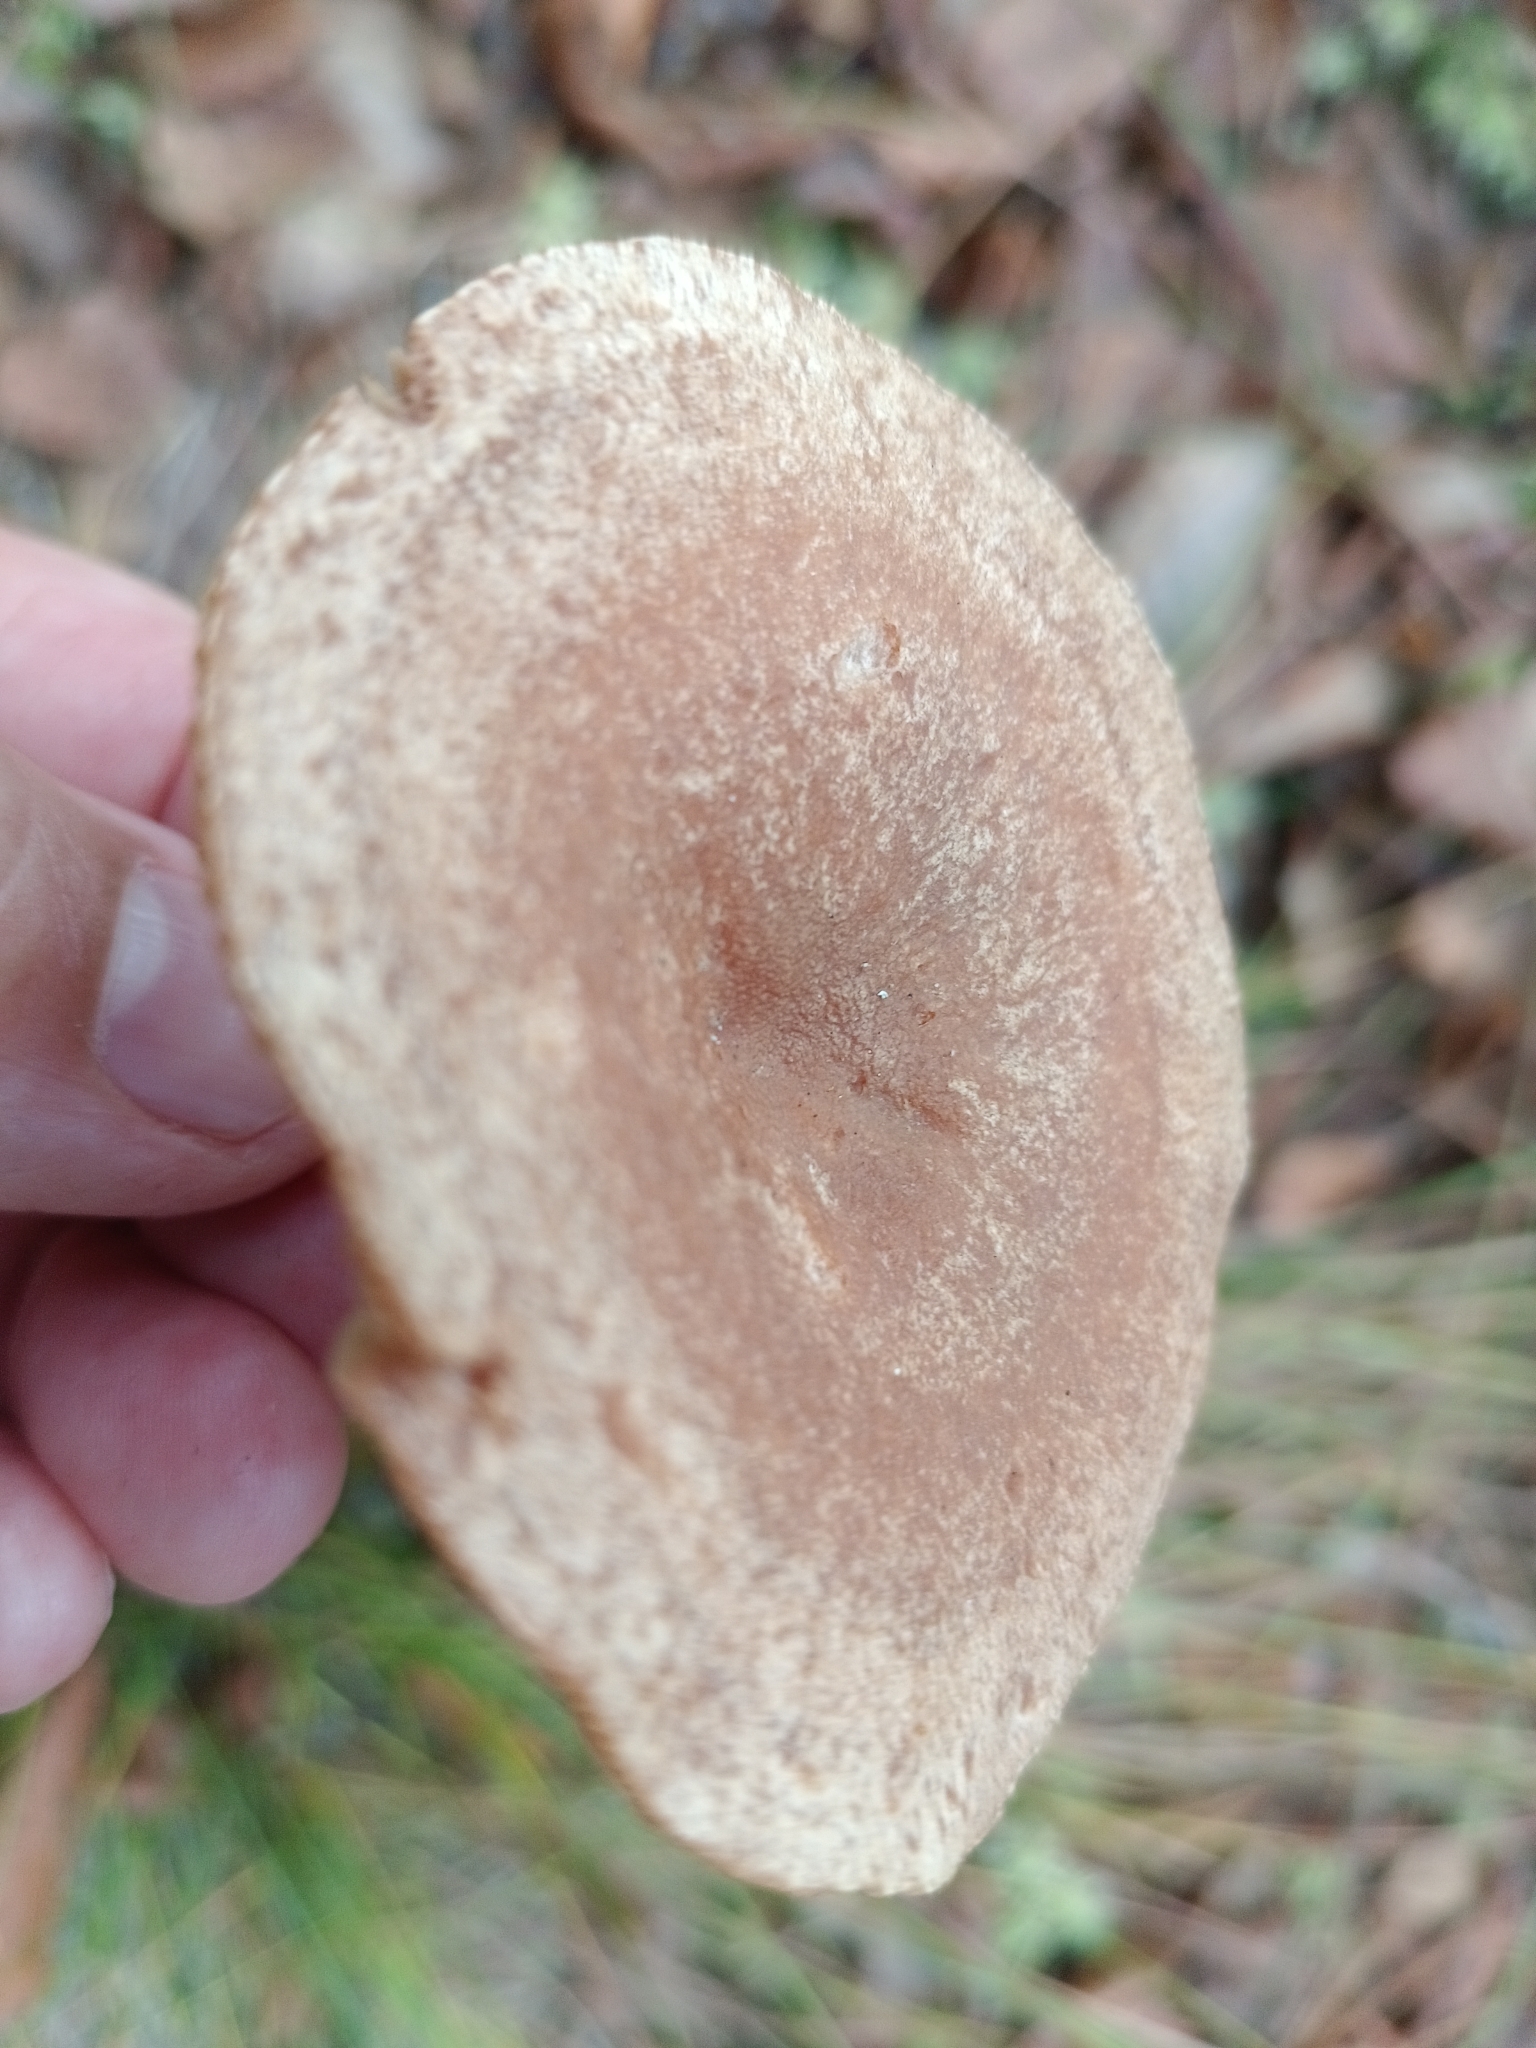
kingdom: Fungi
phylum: Basidiomycota
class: Agaricomycetes
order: Russulales
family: Russulaceae
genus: Lactarius
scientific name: Lactarius helvus
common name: Fenugreek milkcap
